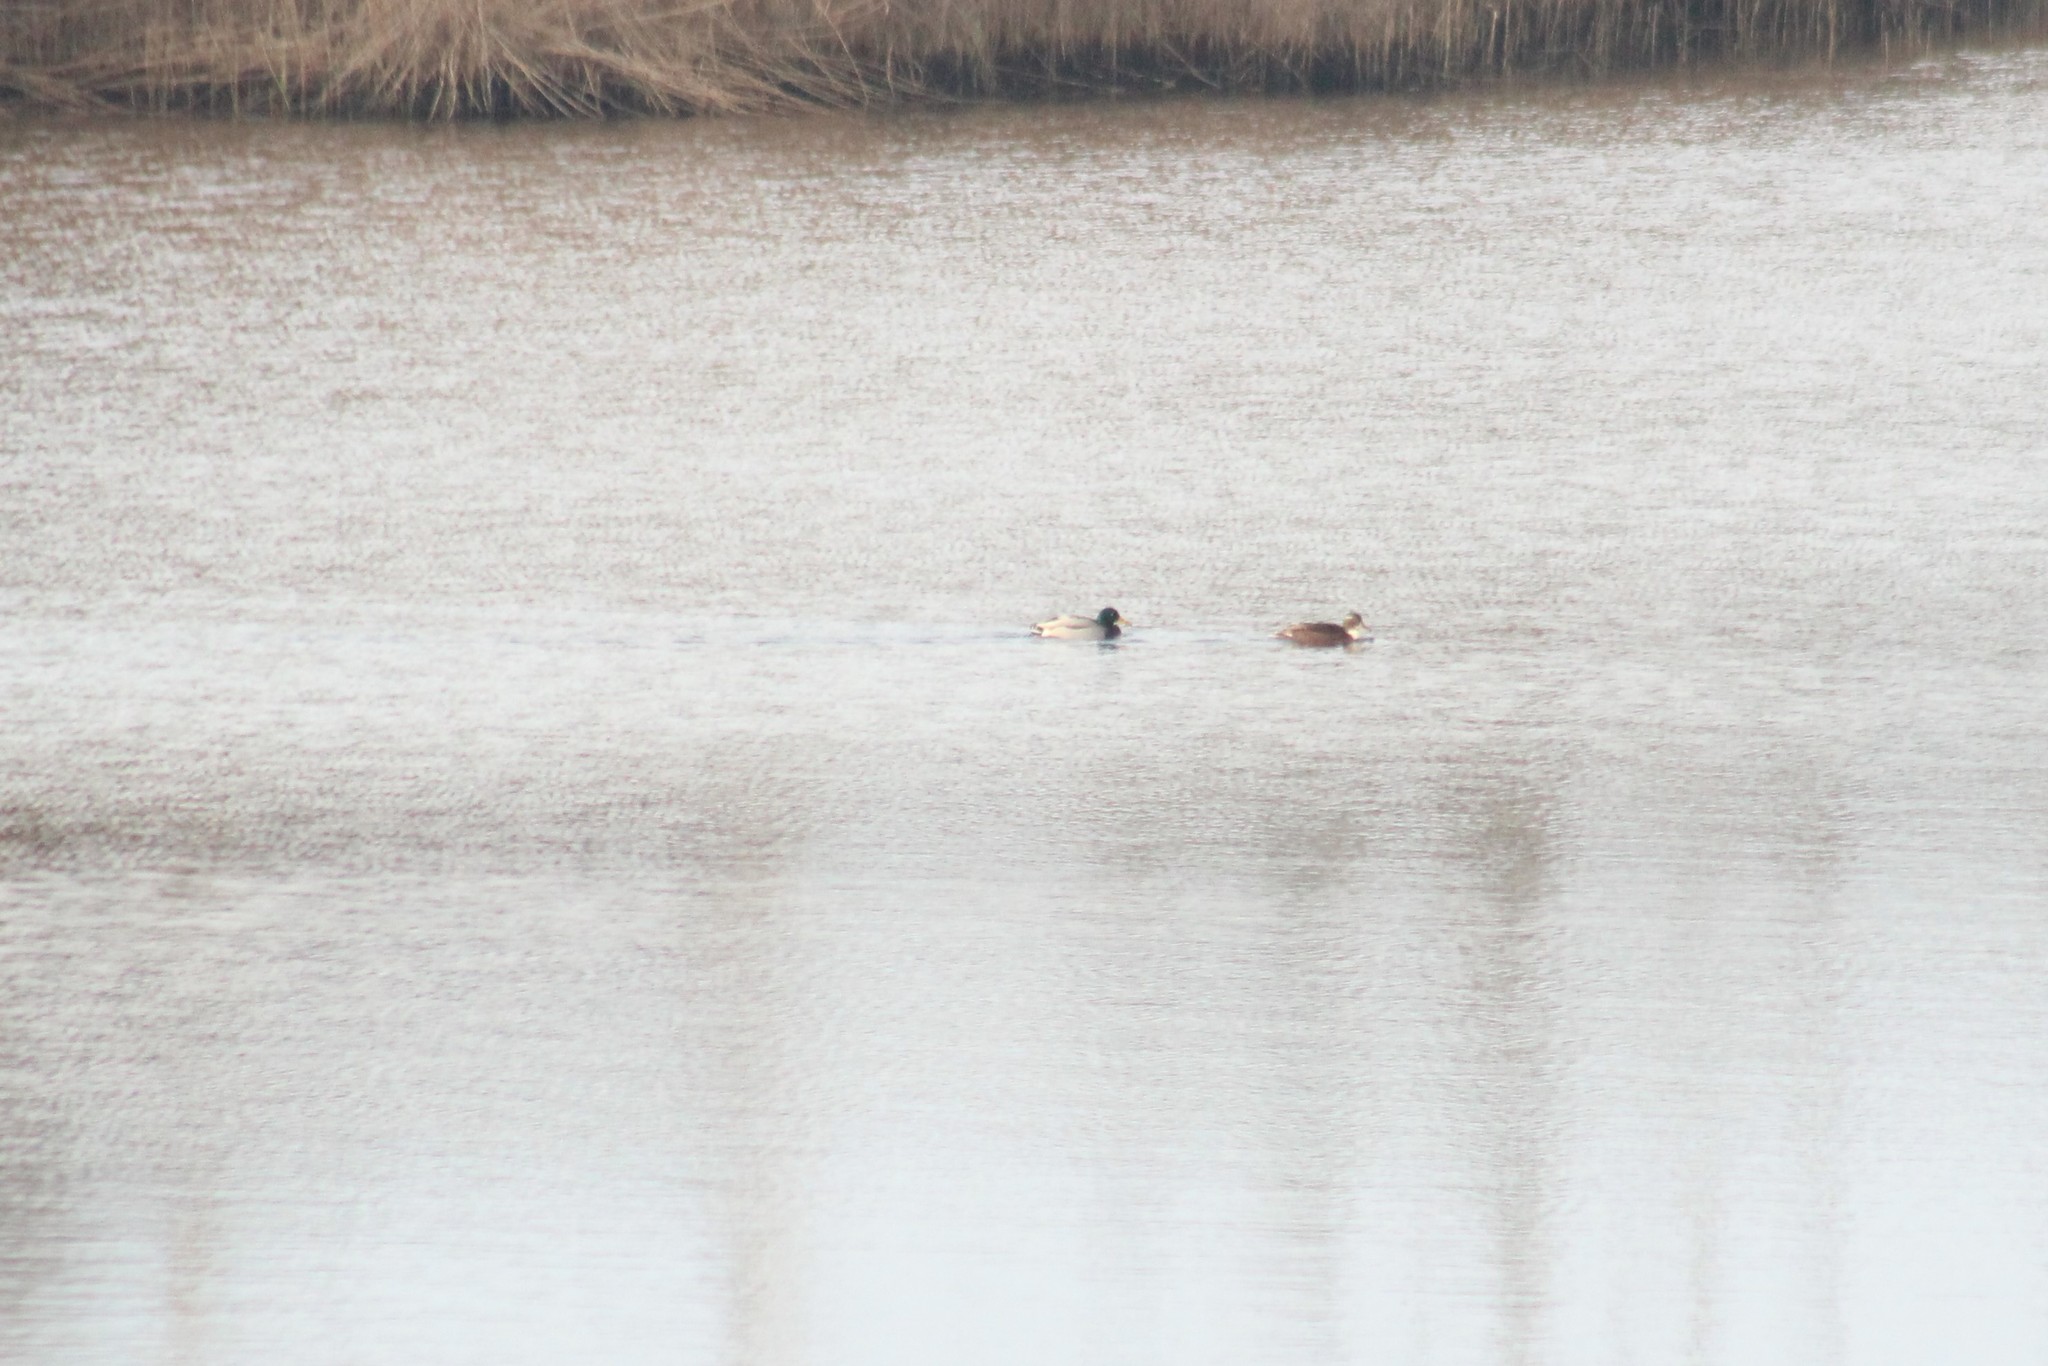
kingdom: Animalia
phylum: Chordata
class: Aves
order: Anseriformes
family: Anatidae
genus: Anas
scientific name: Anas platyrhynchos
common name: Mallard
